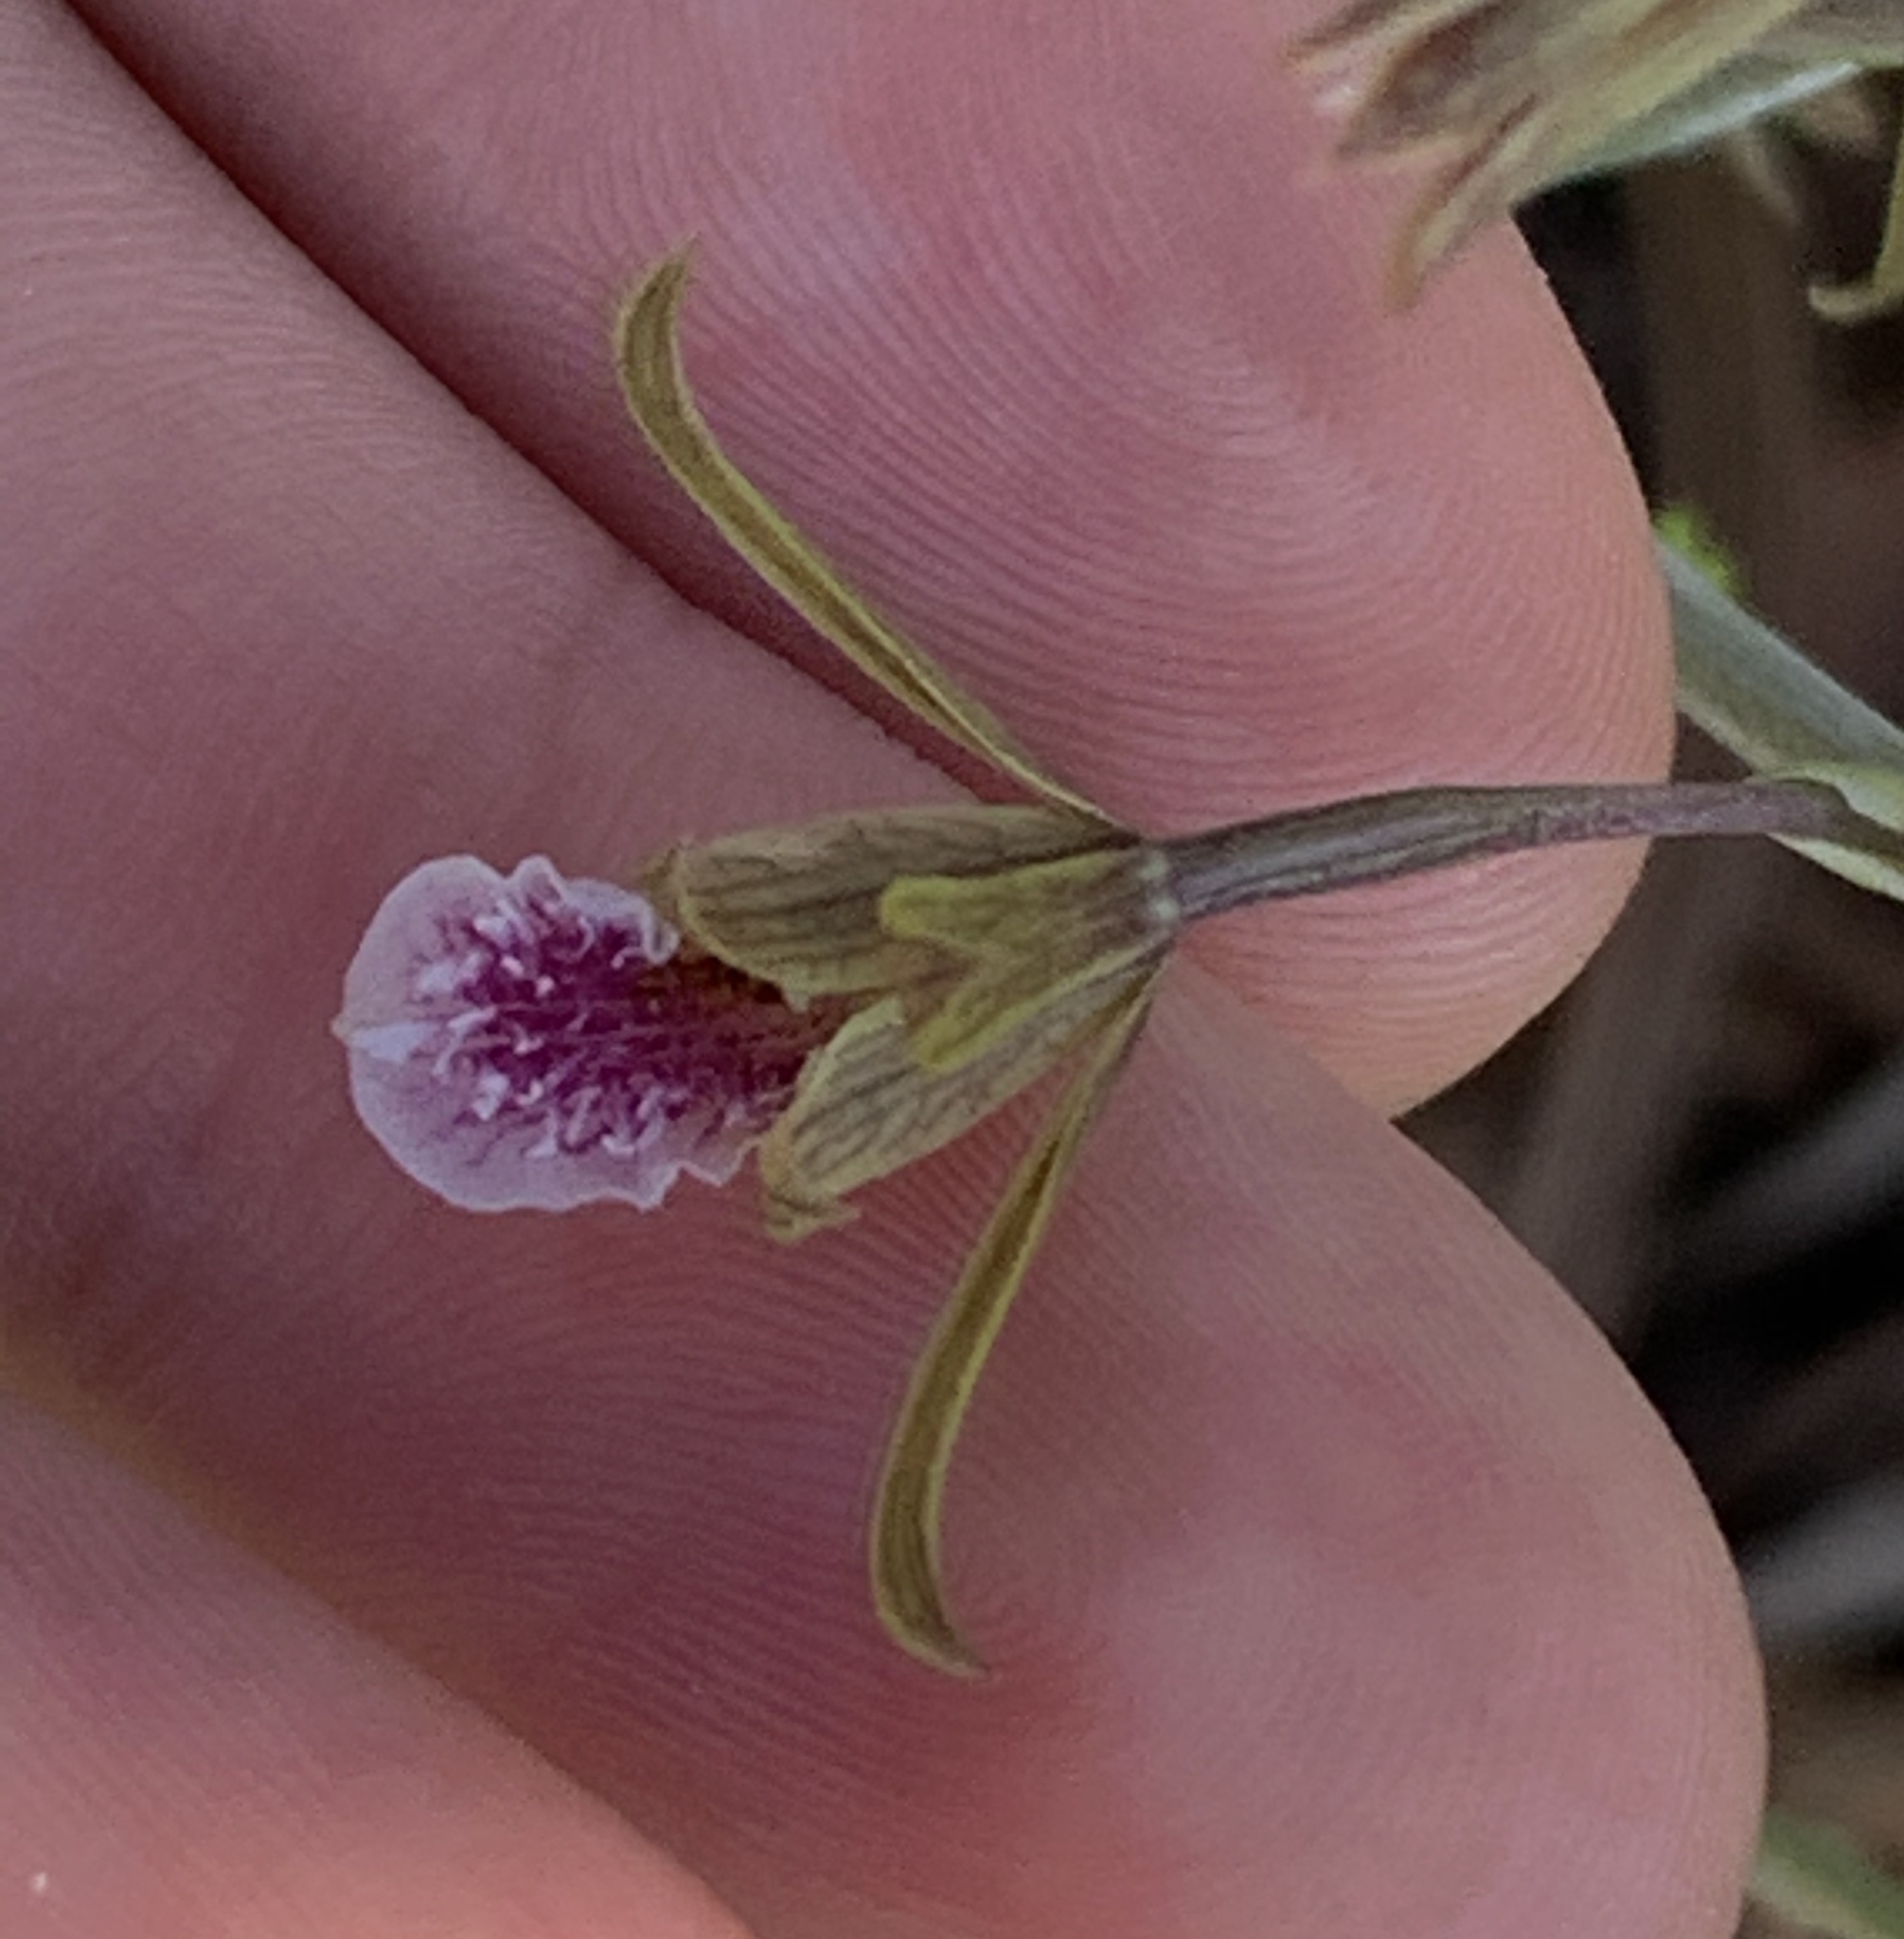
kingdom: Plantae
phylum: Tracheophyta
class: Liliopsida
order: Asparagales
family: Orchidaceae
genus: Eulophia
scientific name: Eulophia graminea
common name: Orchid
